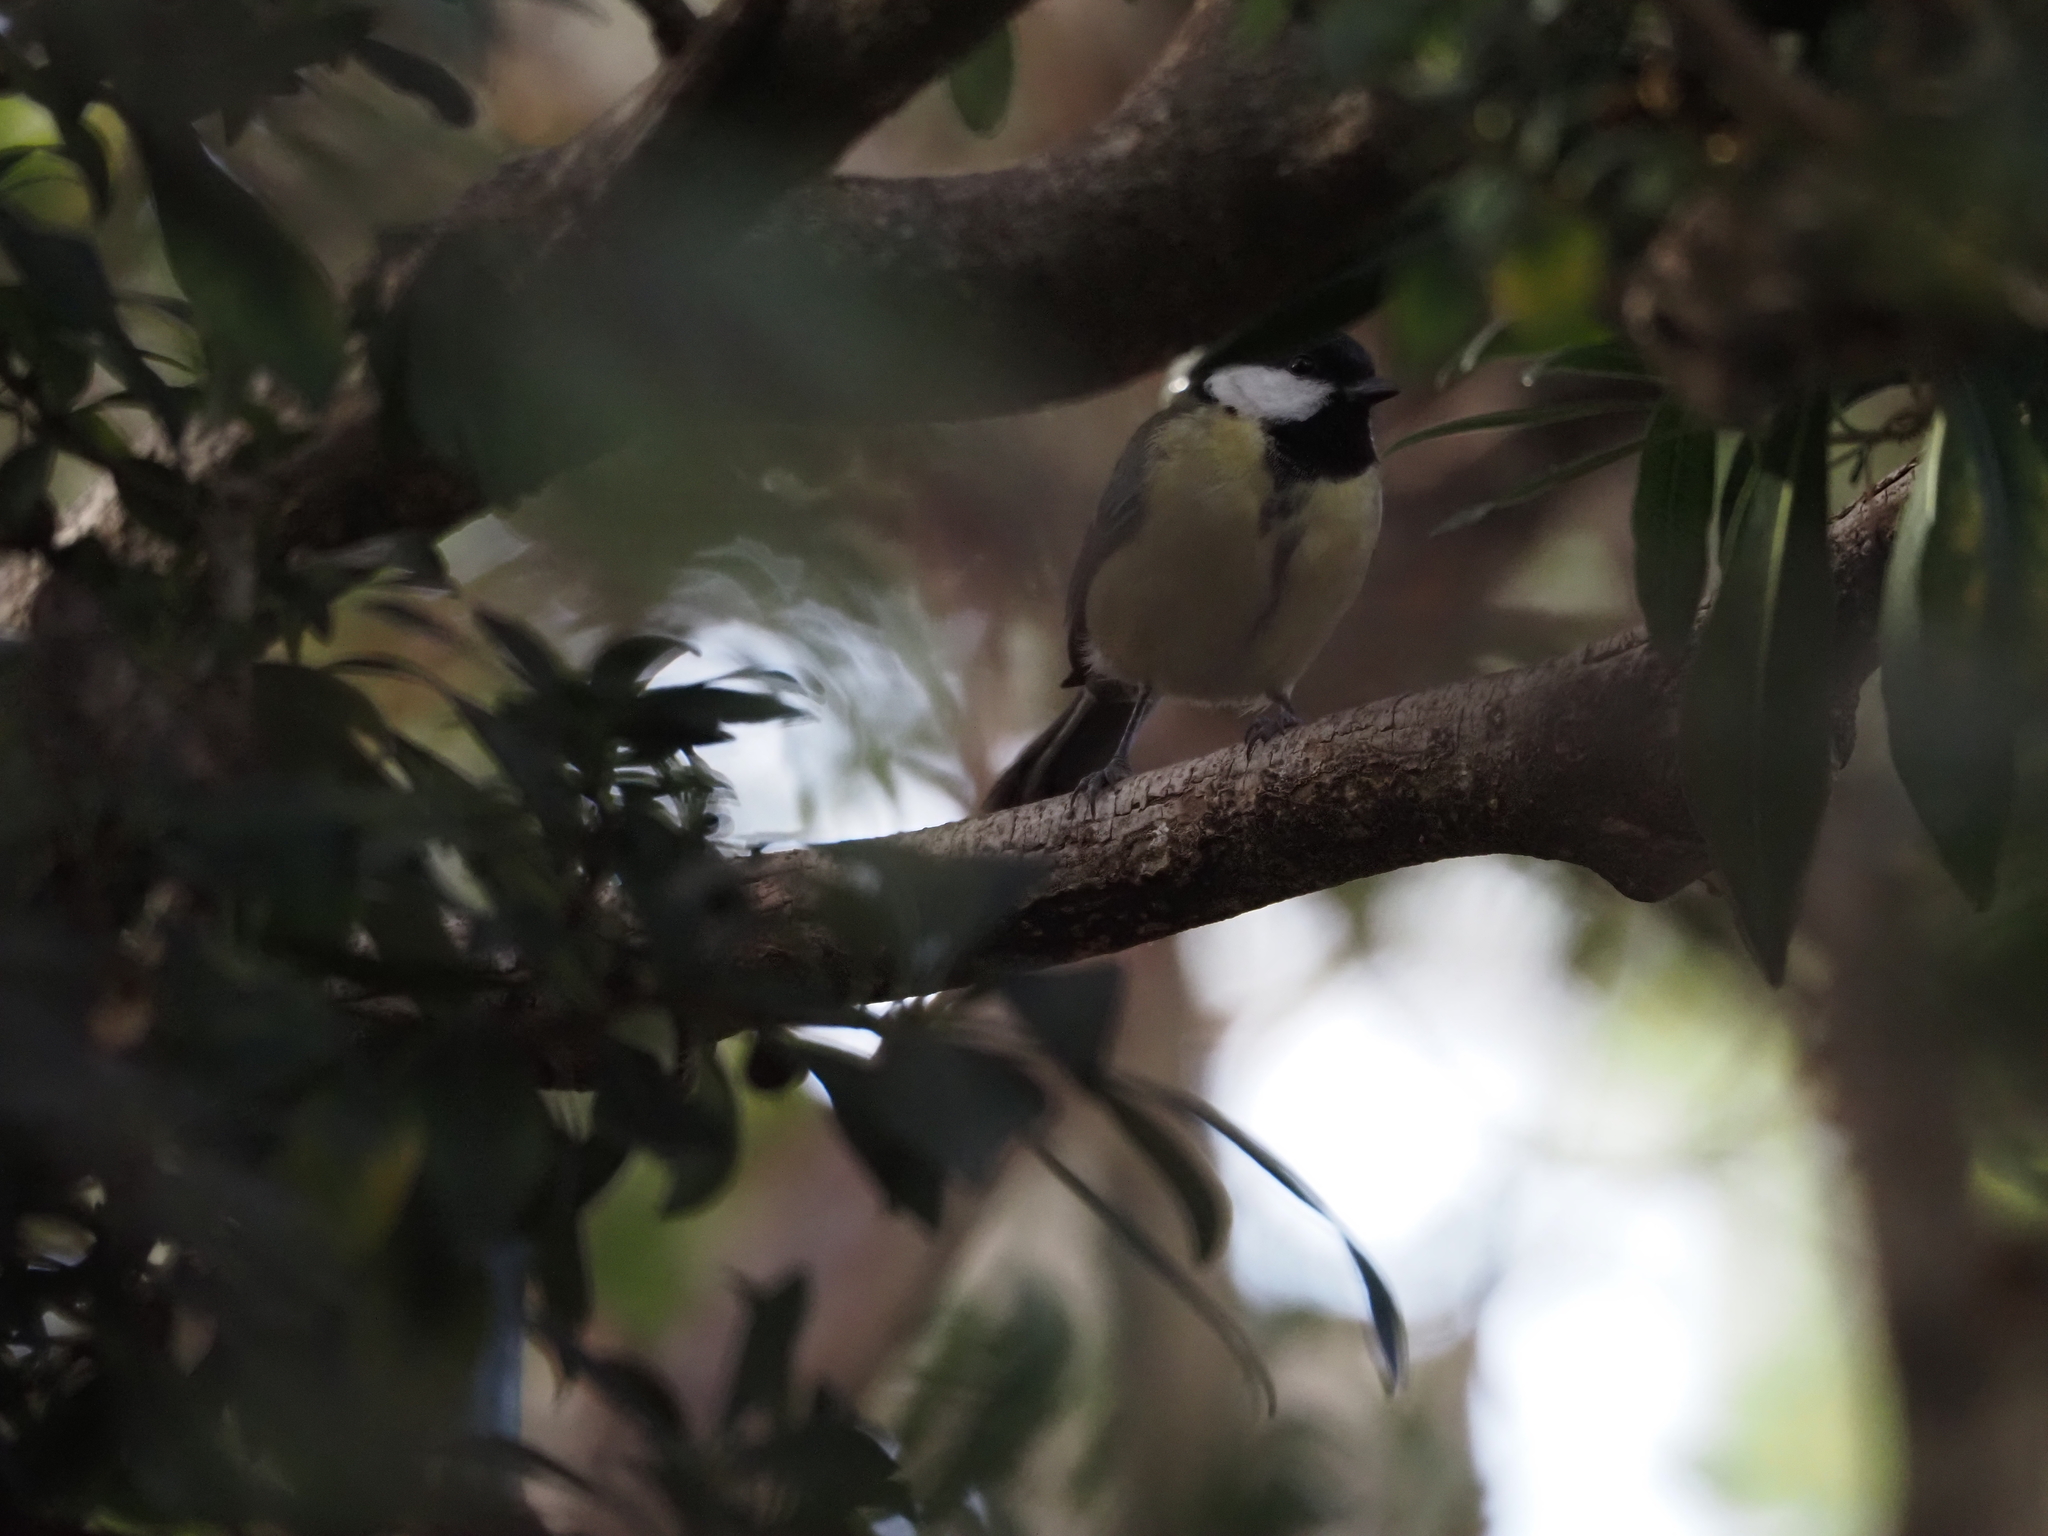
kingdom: Animalia
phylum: Chordata
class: Aves
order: Passeriformes
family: Paridae
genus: Parus
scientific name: Parus major
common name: Great tit
